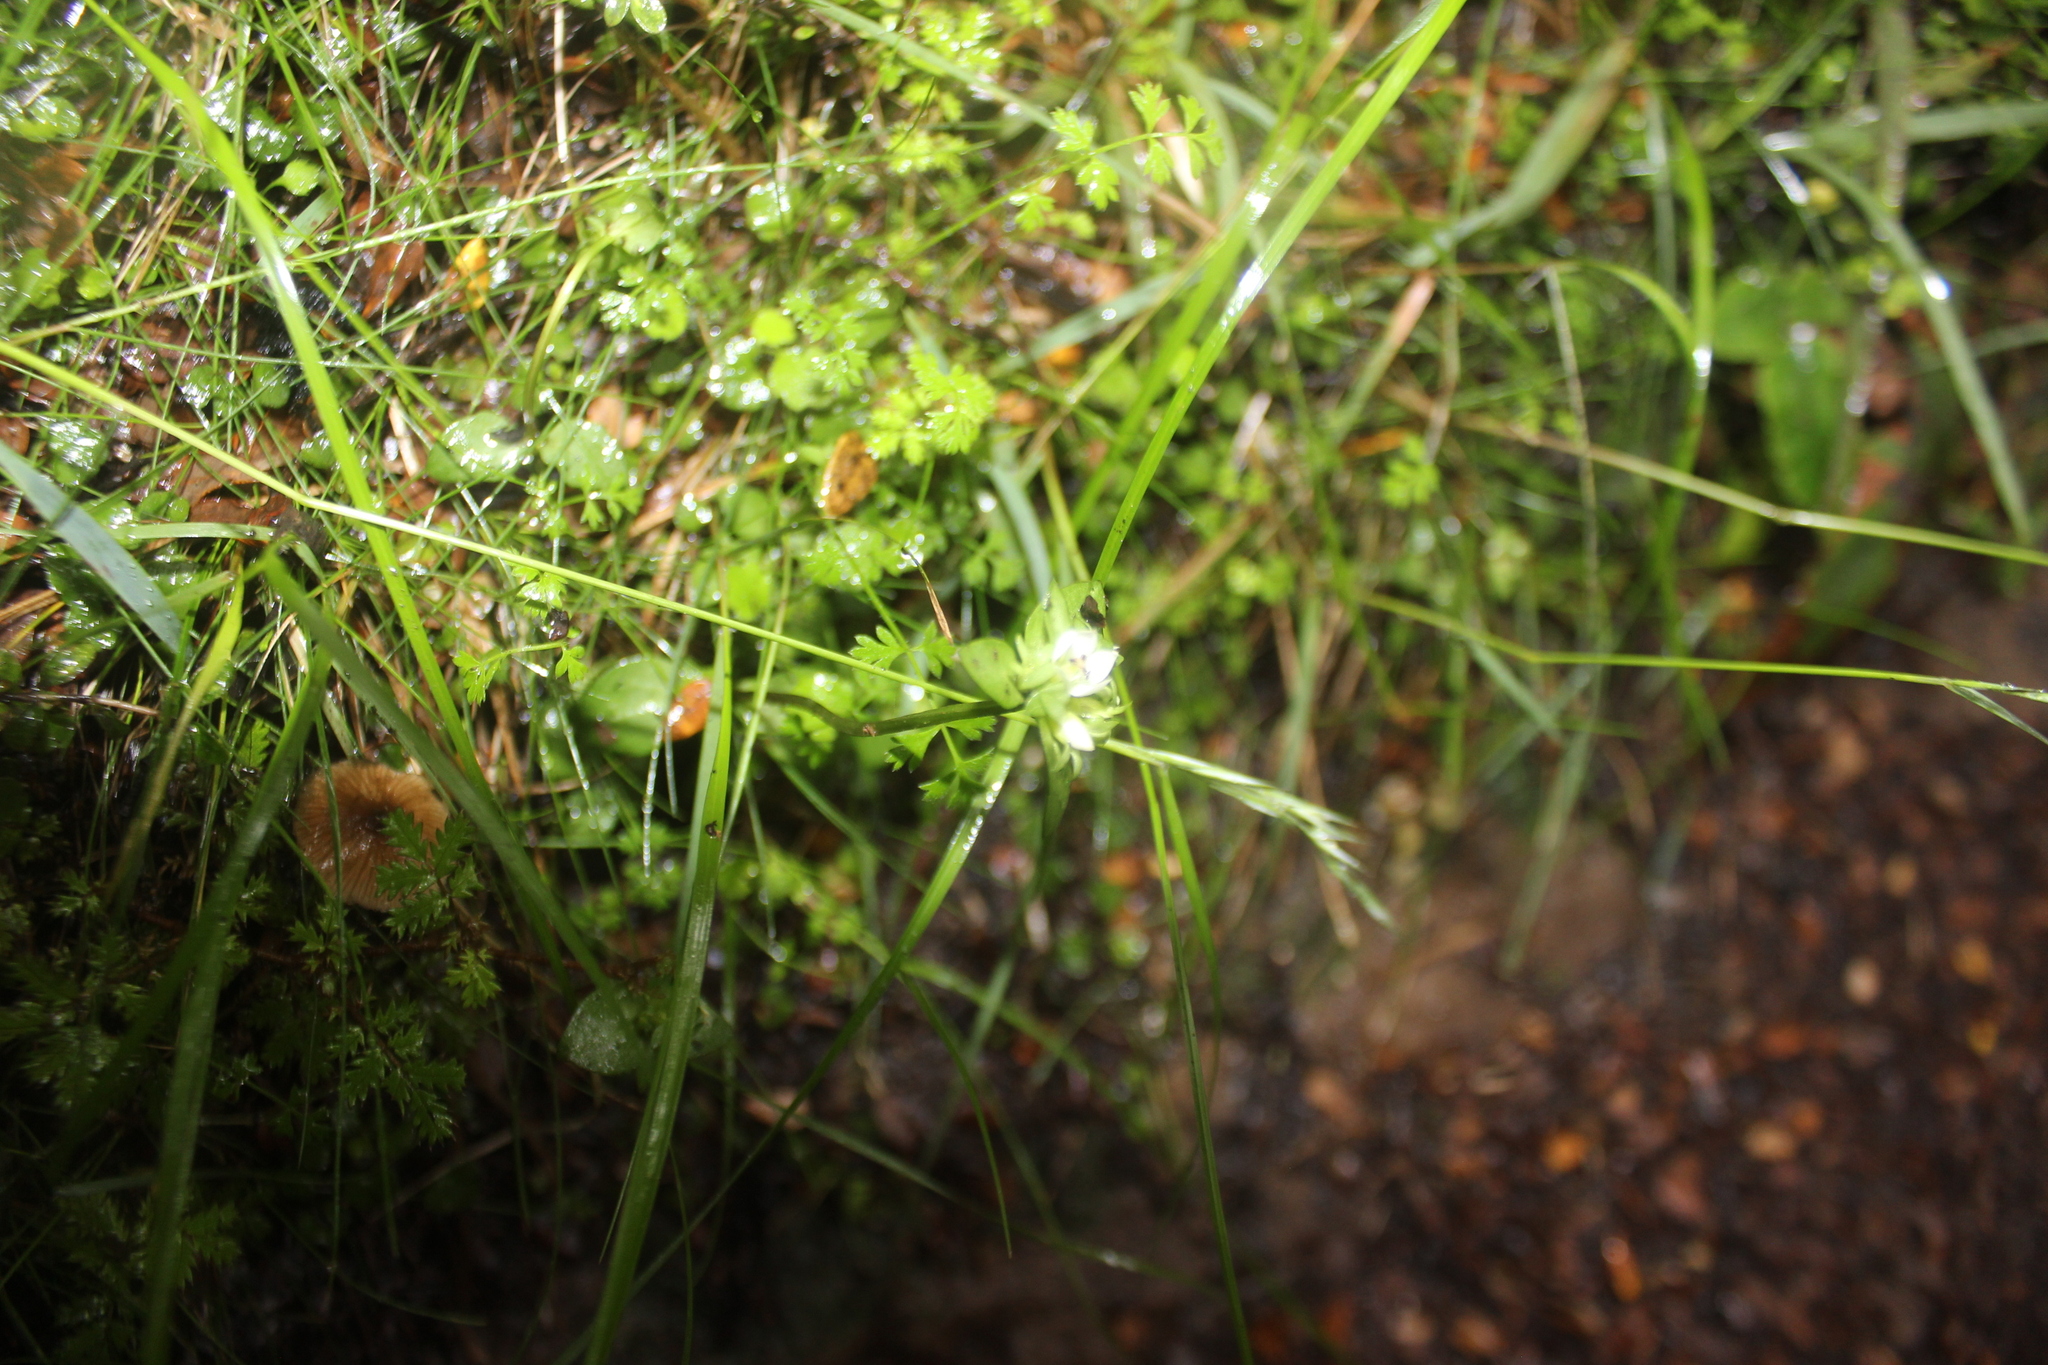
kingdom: Plantae
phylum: Tracheophyta
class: Magnoliopsida
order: Gentianales
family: Gentianaceae
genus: Gentianella
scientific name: Gentianella grisebachii
